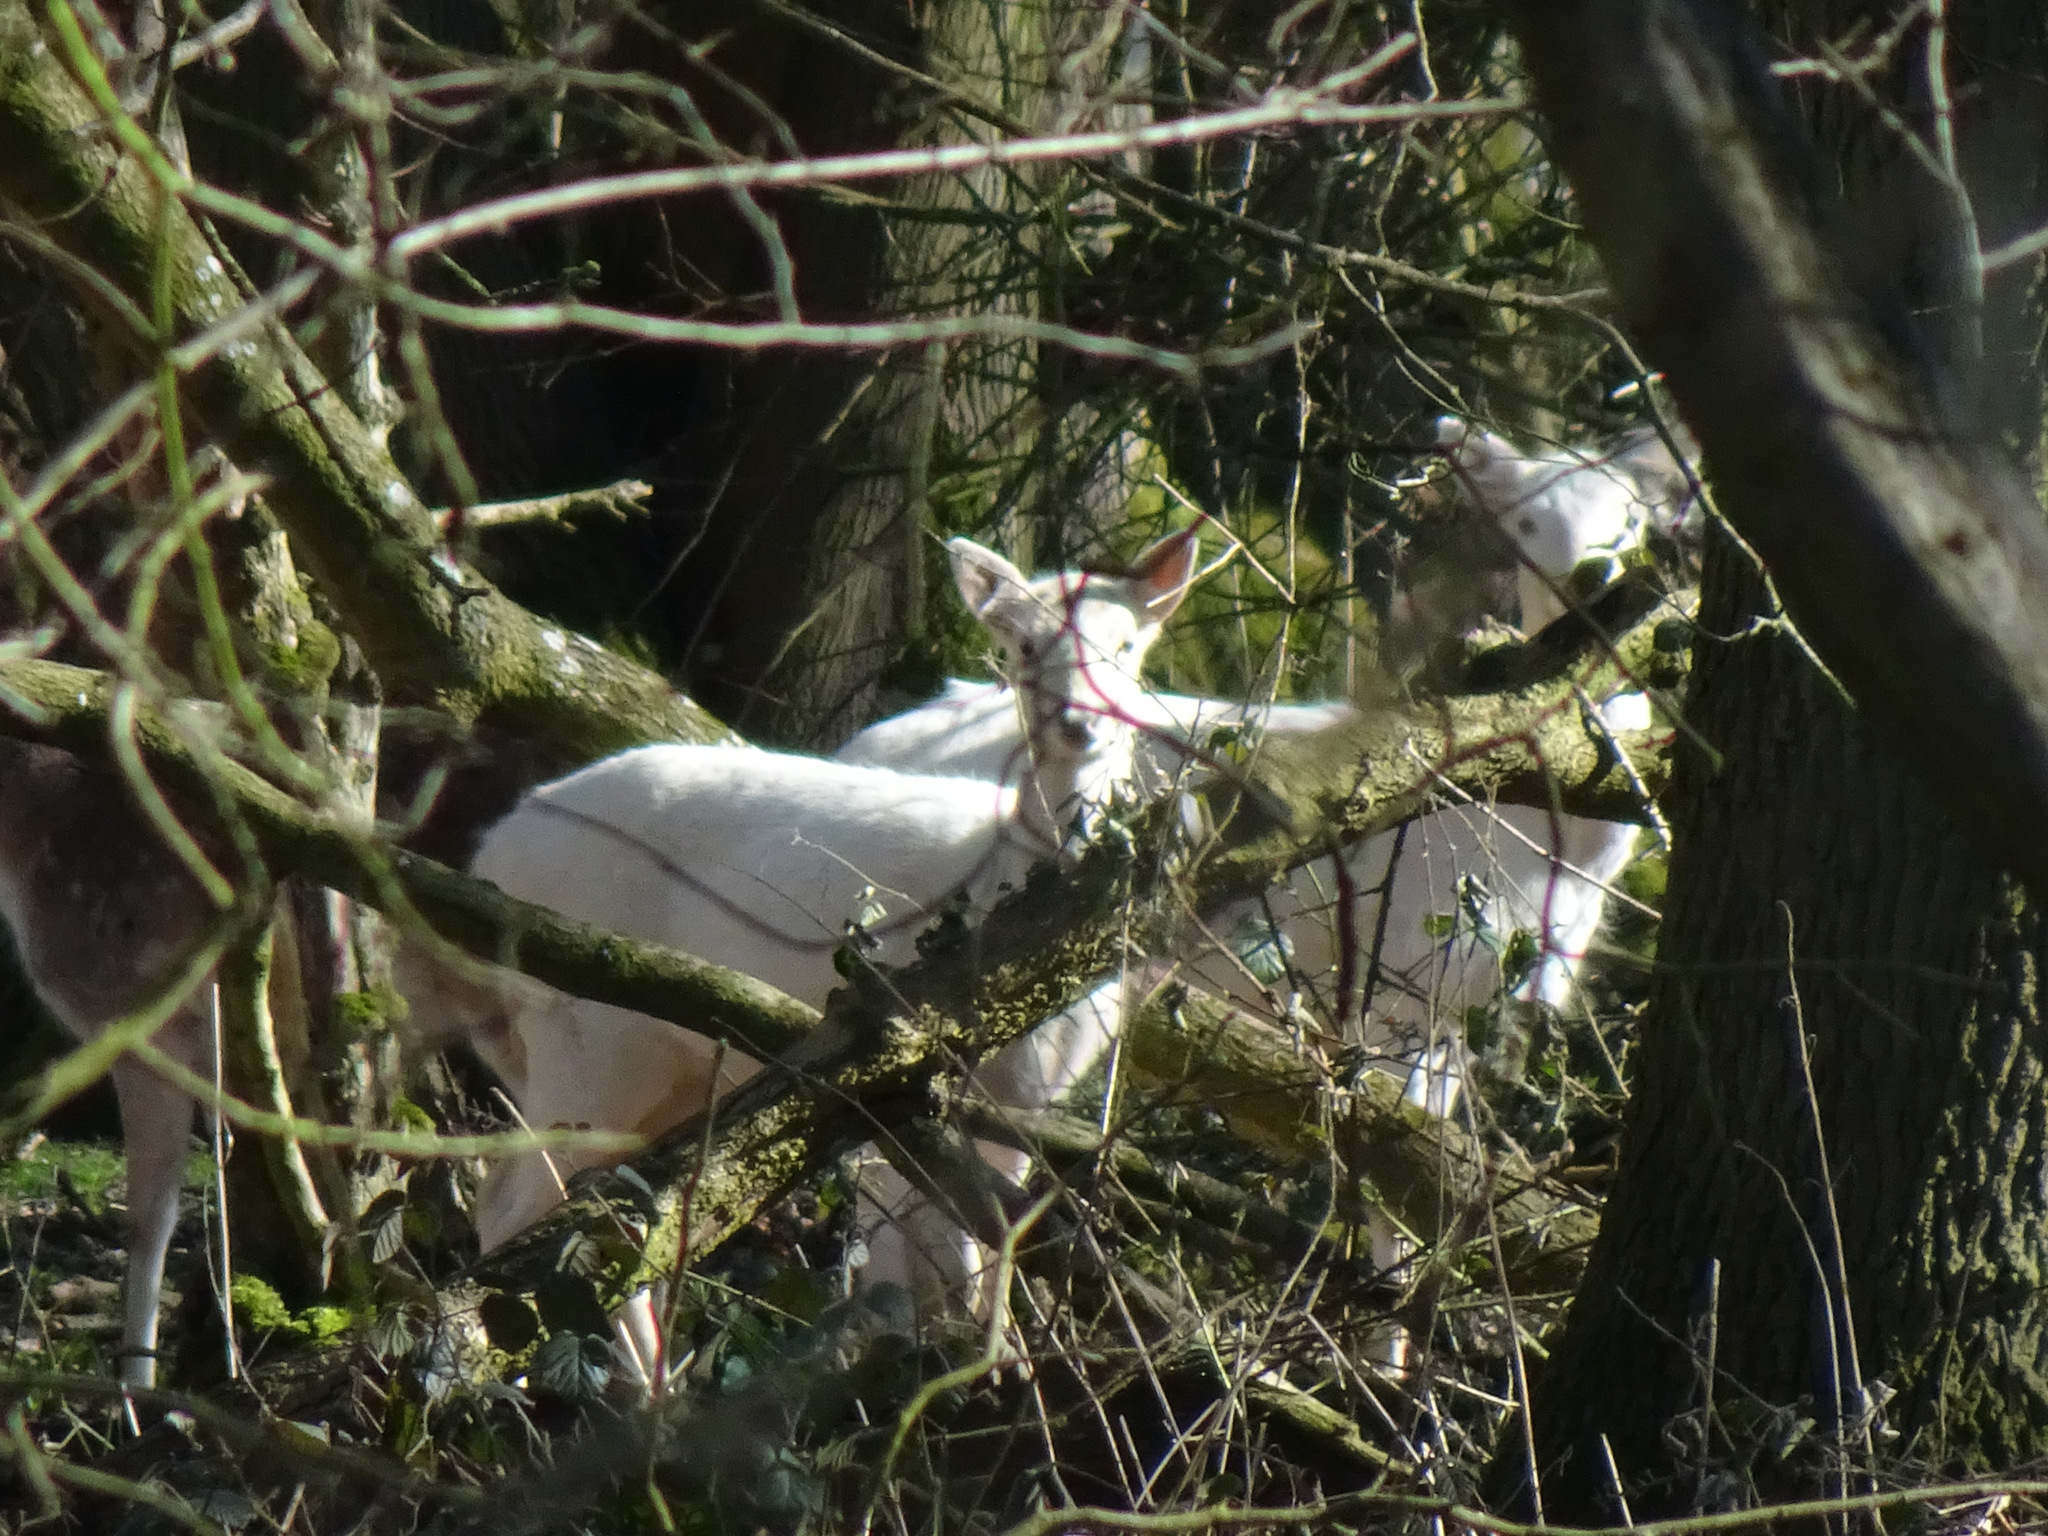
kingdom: Animalia
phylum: Chordata
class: Mammalia
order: Artiodactyla
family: Cervidae
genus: Dama
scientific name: Dama dama
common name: Fallow deer
